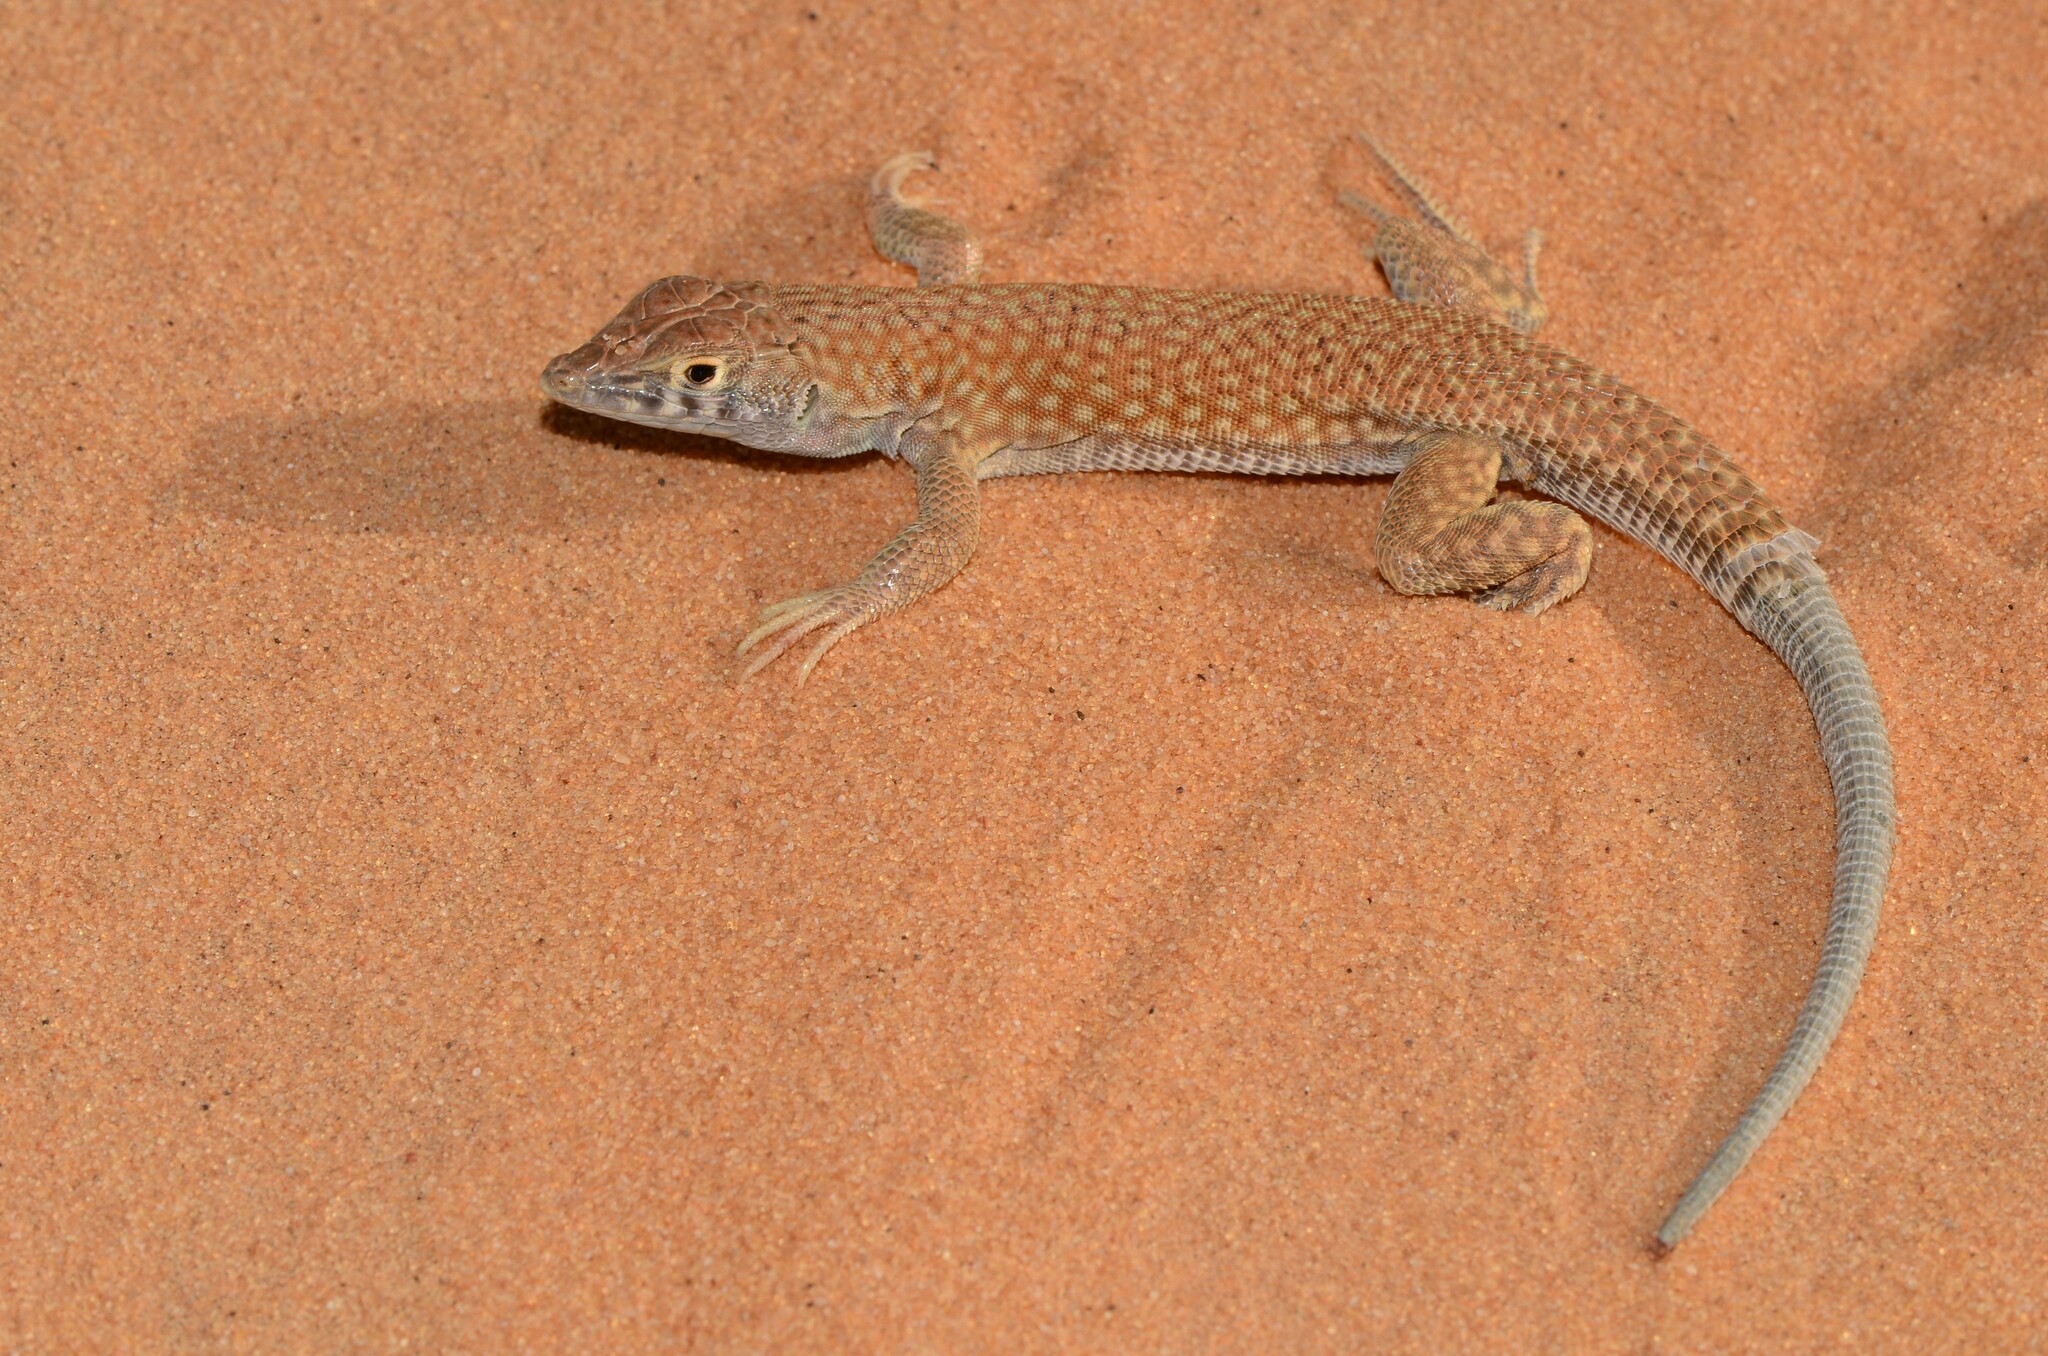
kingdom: Animalia
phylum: Chordata
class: Squamata
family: Lacertidae
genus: Acanthodactylus
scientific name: Acanthodactylus schmidti
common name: Schmidt's fringe-toed lizard
